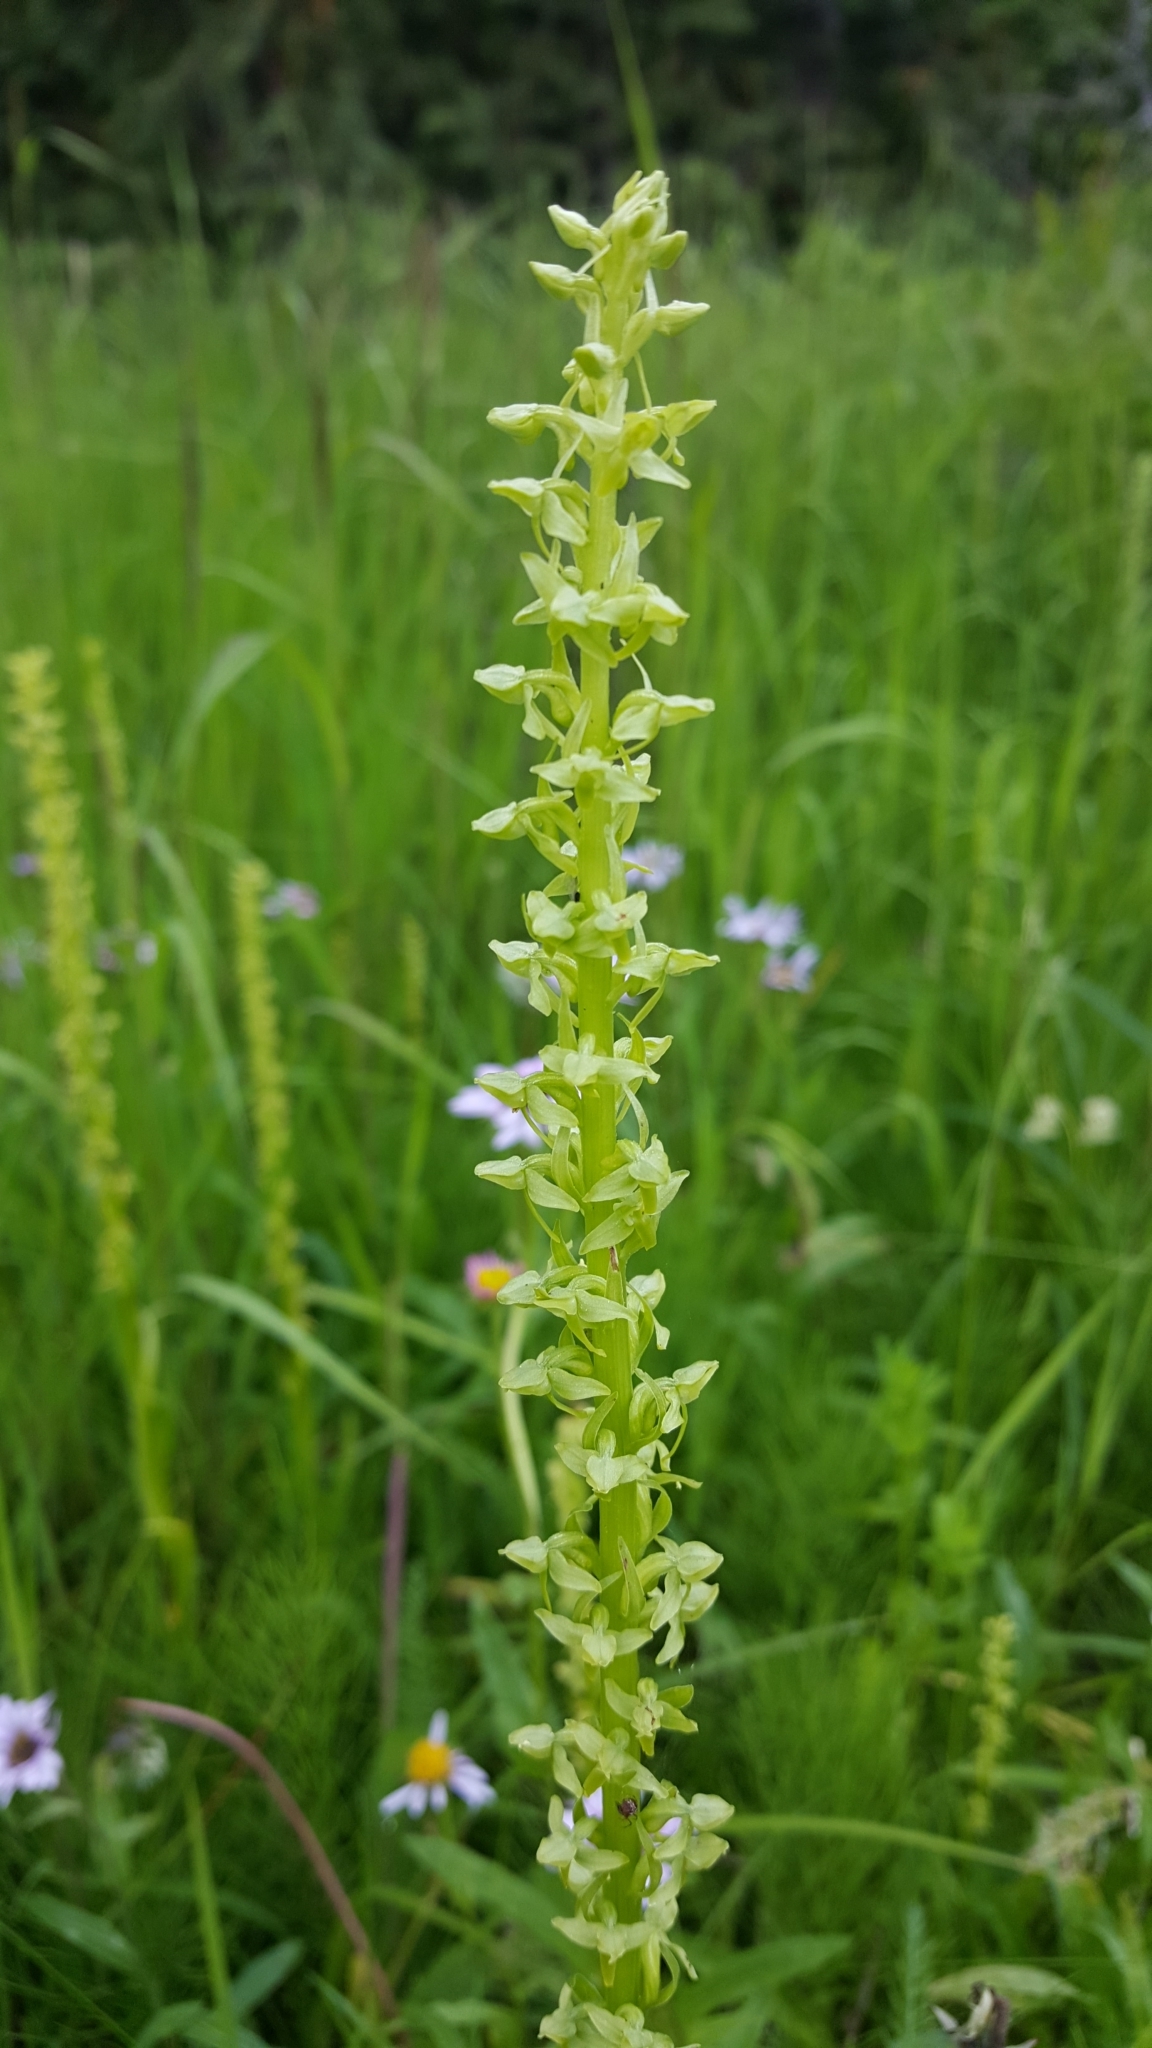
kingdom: Plantae
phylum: Tracheophyta
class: Liliopsida
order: Asparagales
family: Orchidaceae
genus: Platanthera
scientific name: Platanthera stricta
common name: Slender bog orchid
